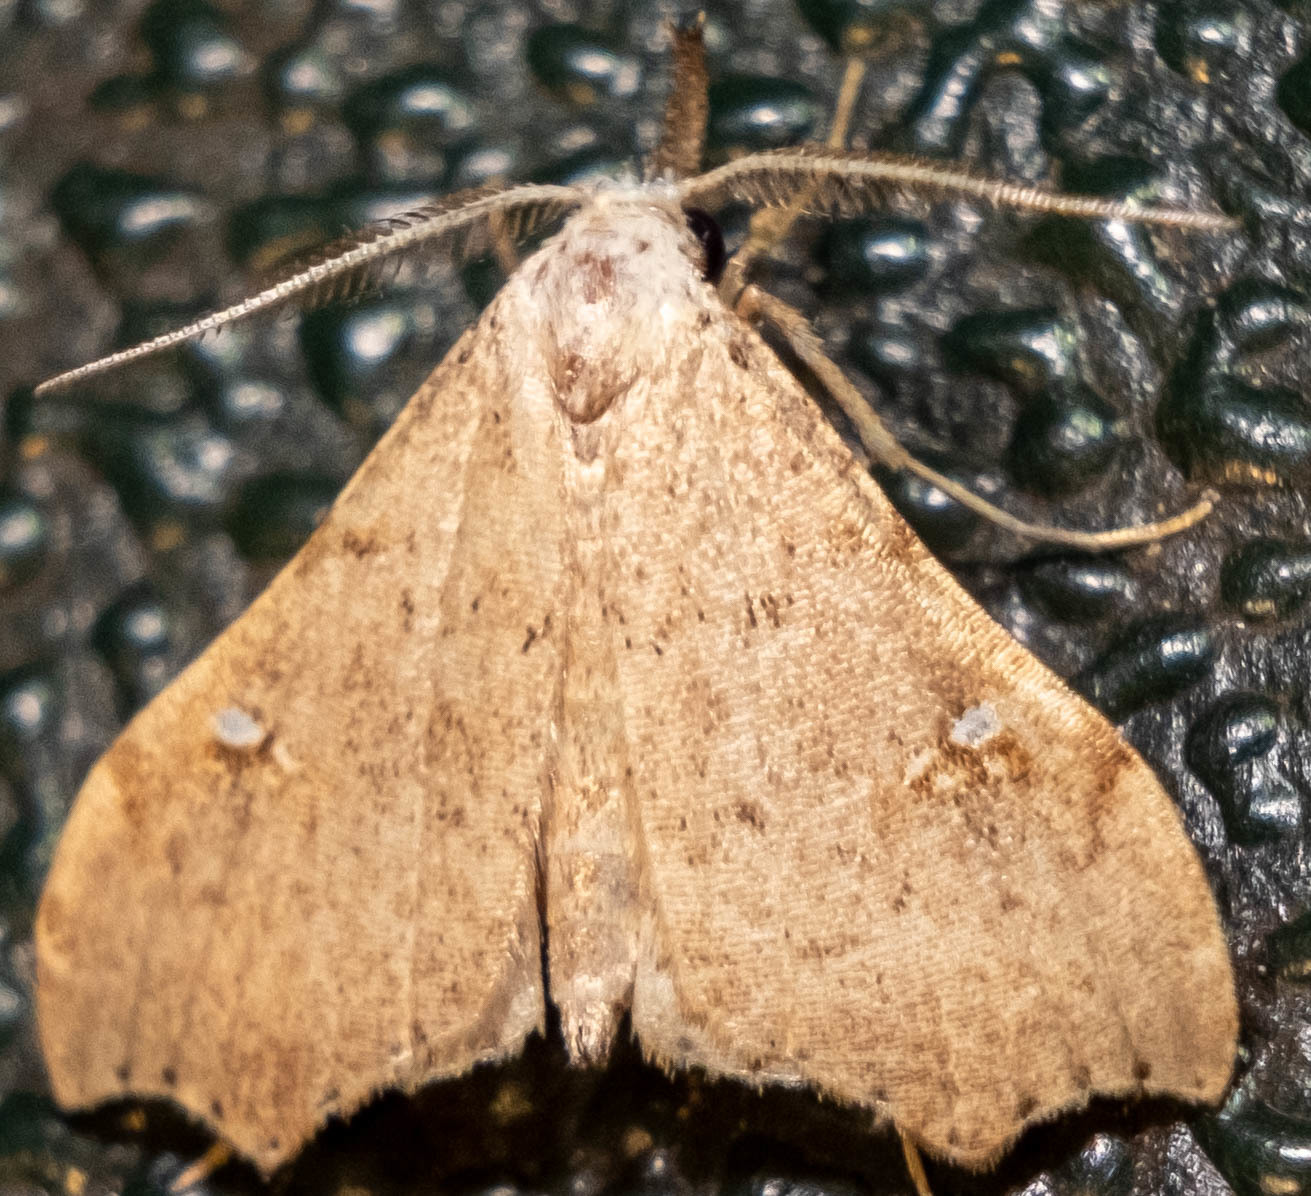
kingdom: Animalia
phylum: Arthropoda
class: Insecta
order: Lepidoptera
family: Erebidae
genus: Redectis
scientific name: Redectis vitrea
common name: White-spotted redectis
